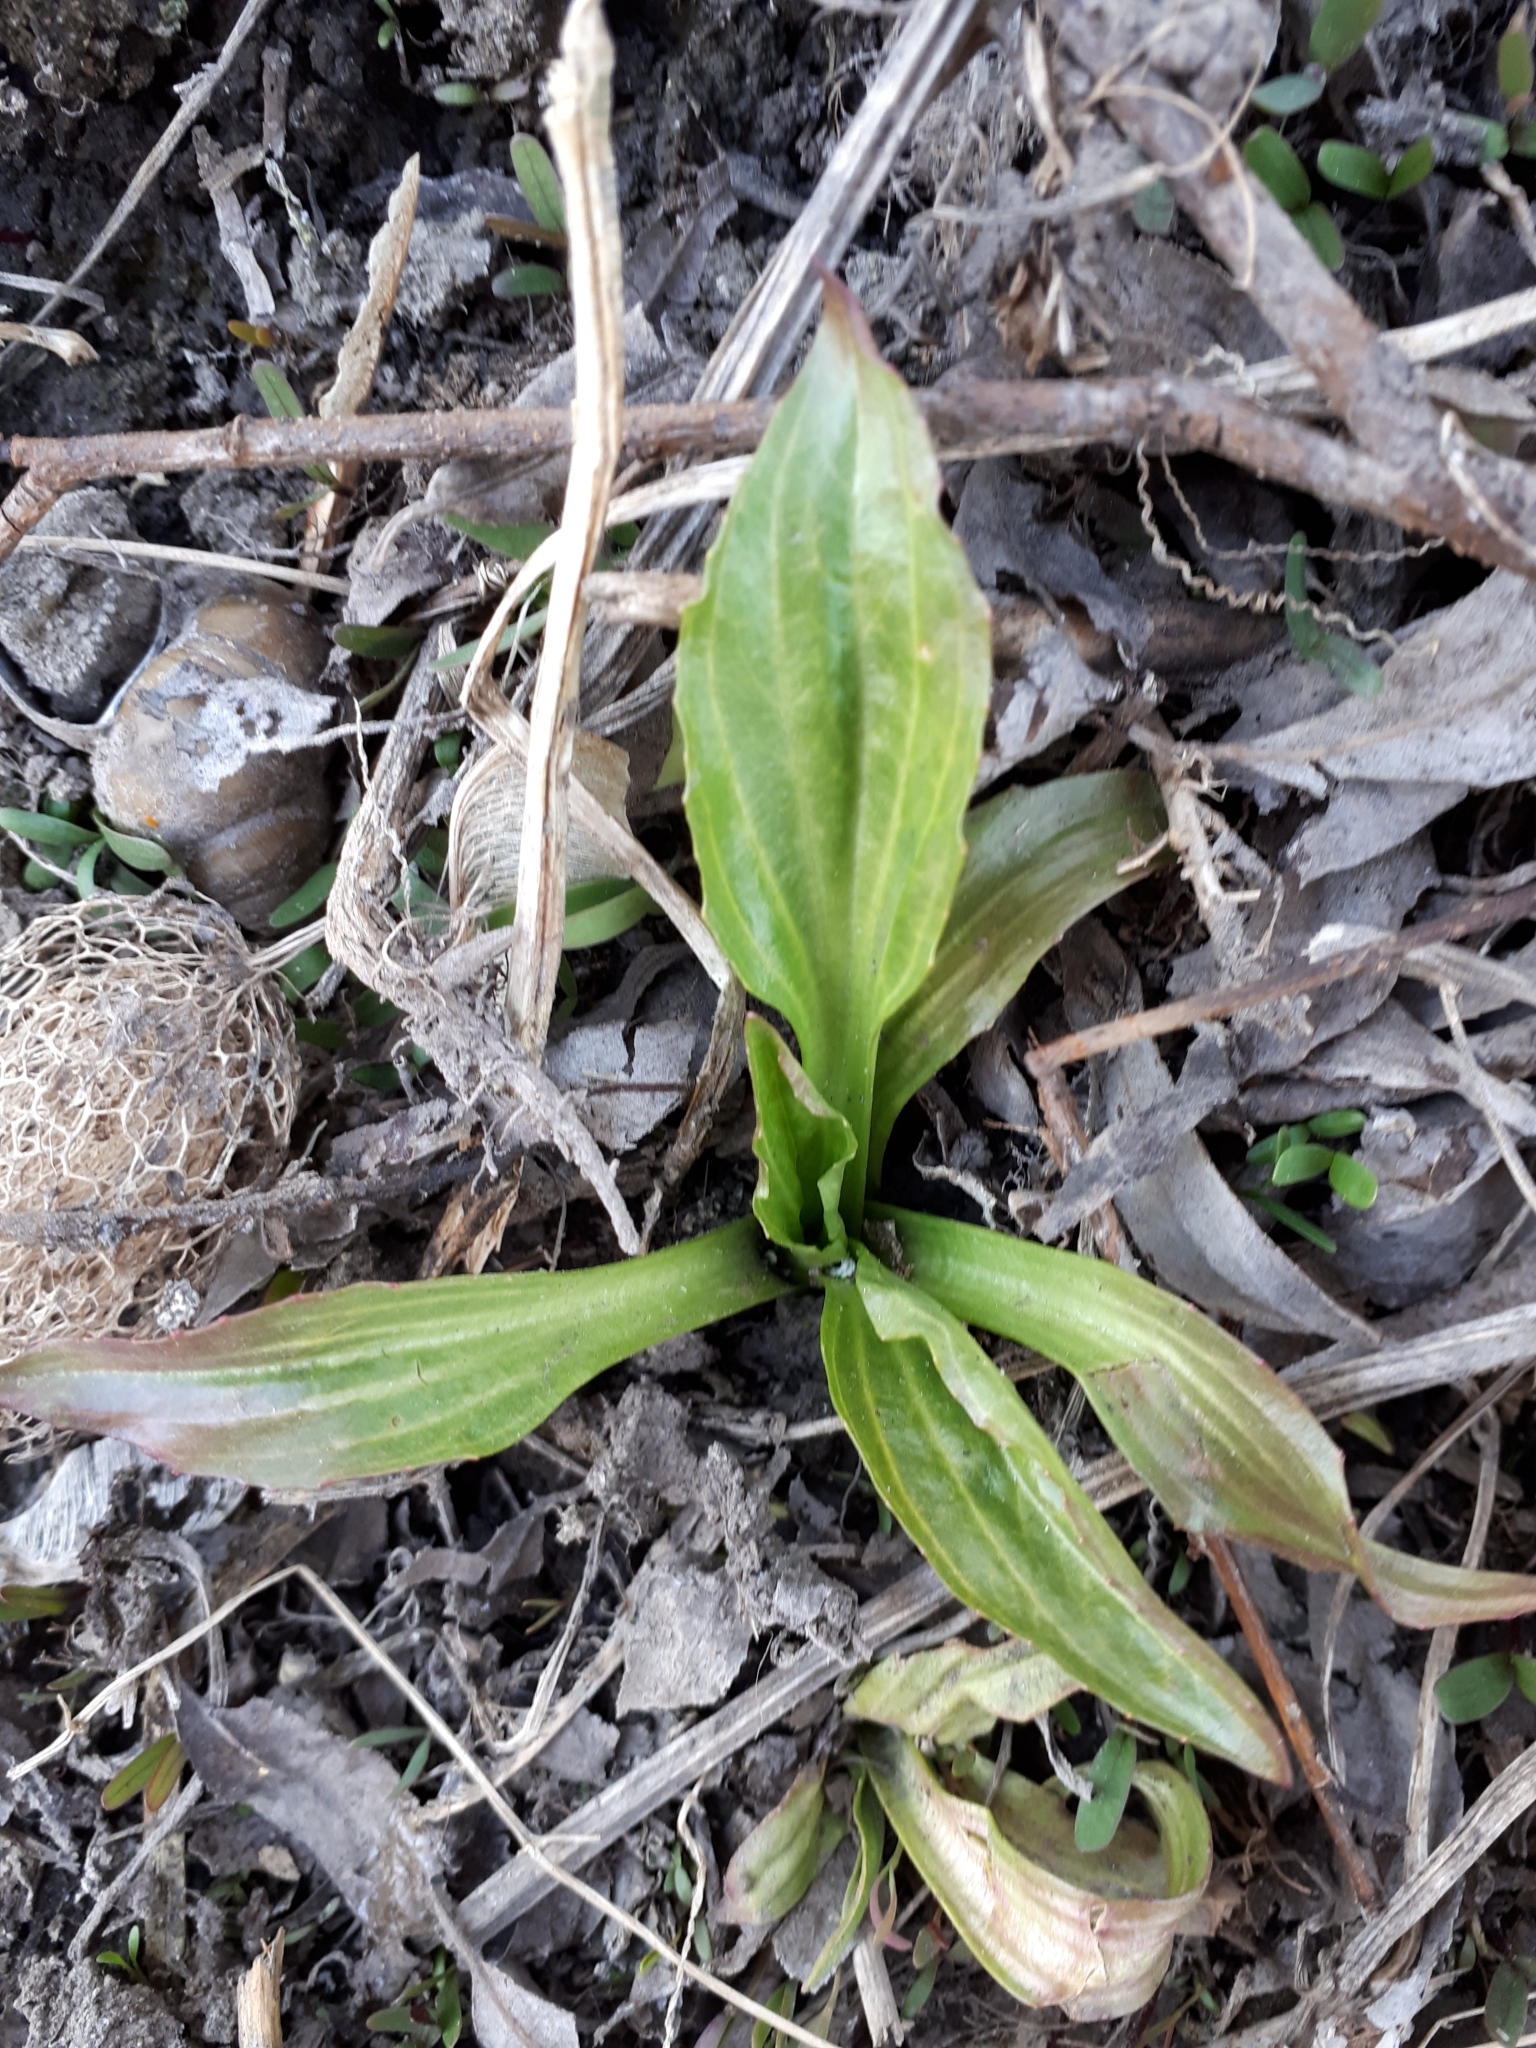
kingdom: Plantae
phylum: Tracheophyta
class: Magnoliopsida
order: Lamiales
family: Plantaginaceae
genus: Plantago
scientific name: Plantago major
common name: Common plantain
